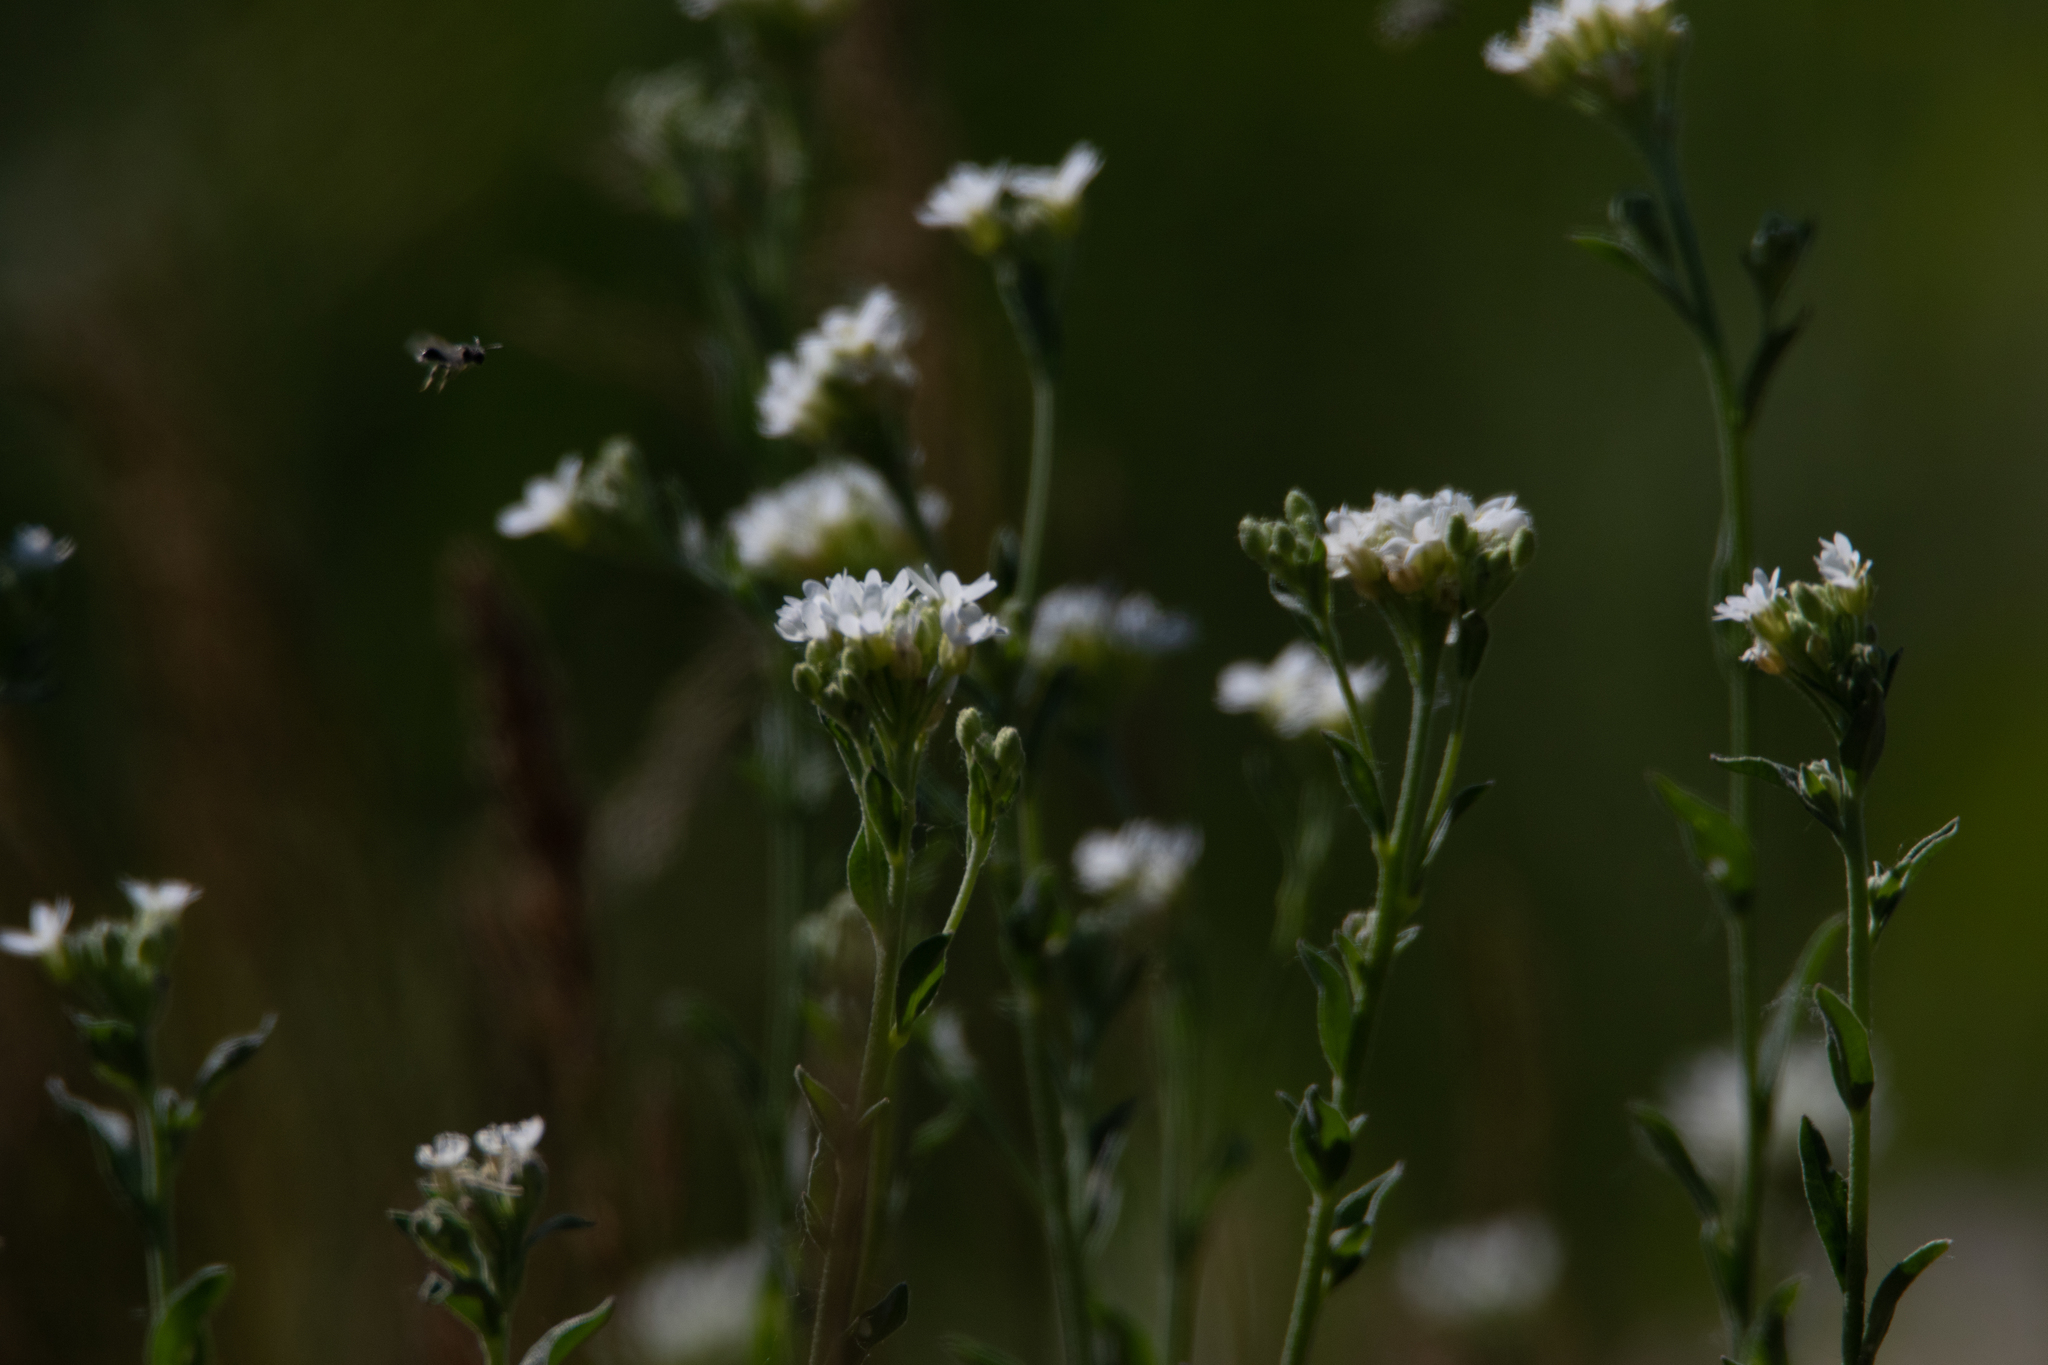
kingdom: Plantae
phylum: Tracheophyta
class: Magnoliopsida
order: Brassicales
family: Brassicaceae
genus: Berteroa
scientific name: Berteroa incana
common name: Hoary alison
